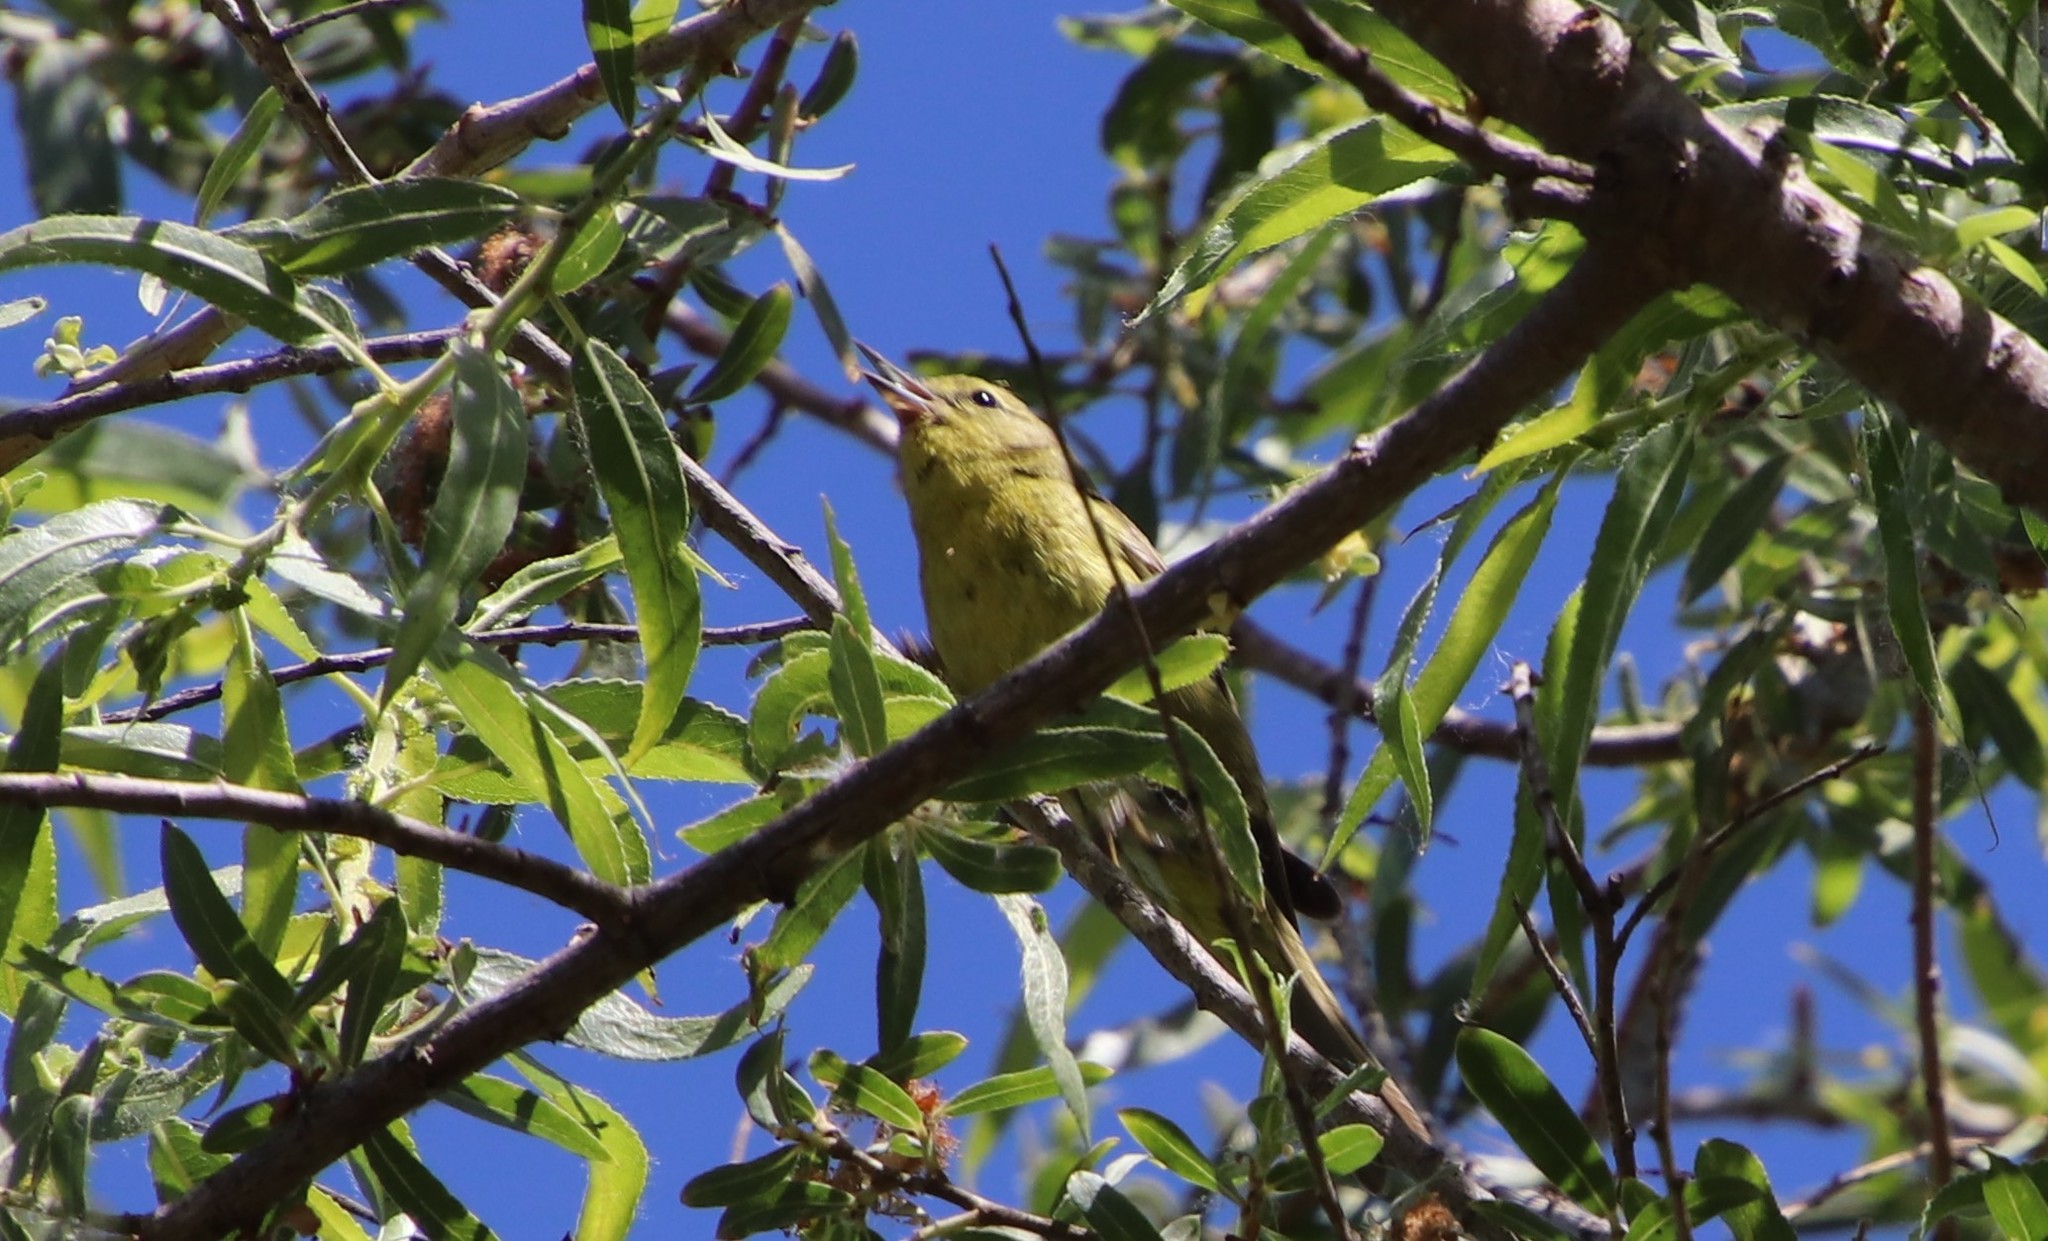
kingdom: Animalia
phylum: Chordata
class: Aves
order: Passeriformes
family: Parulidae
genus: Leiothlypis
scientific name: Leiothlypis celata
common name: Orange-crowned warbler
